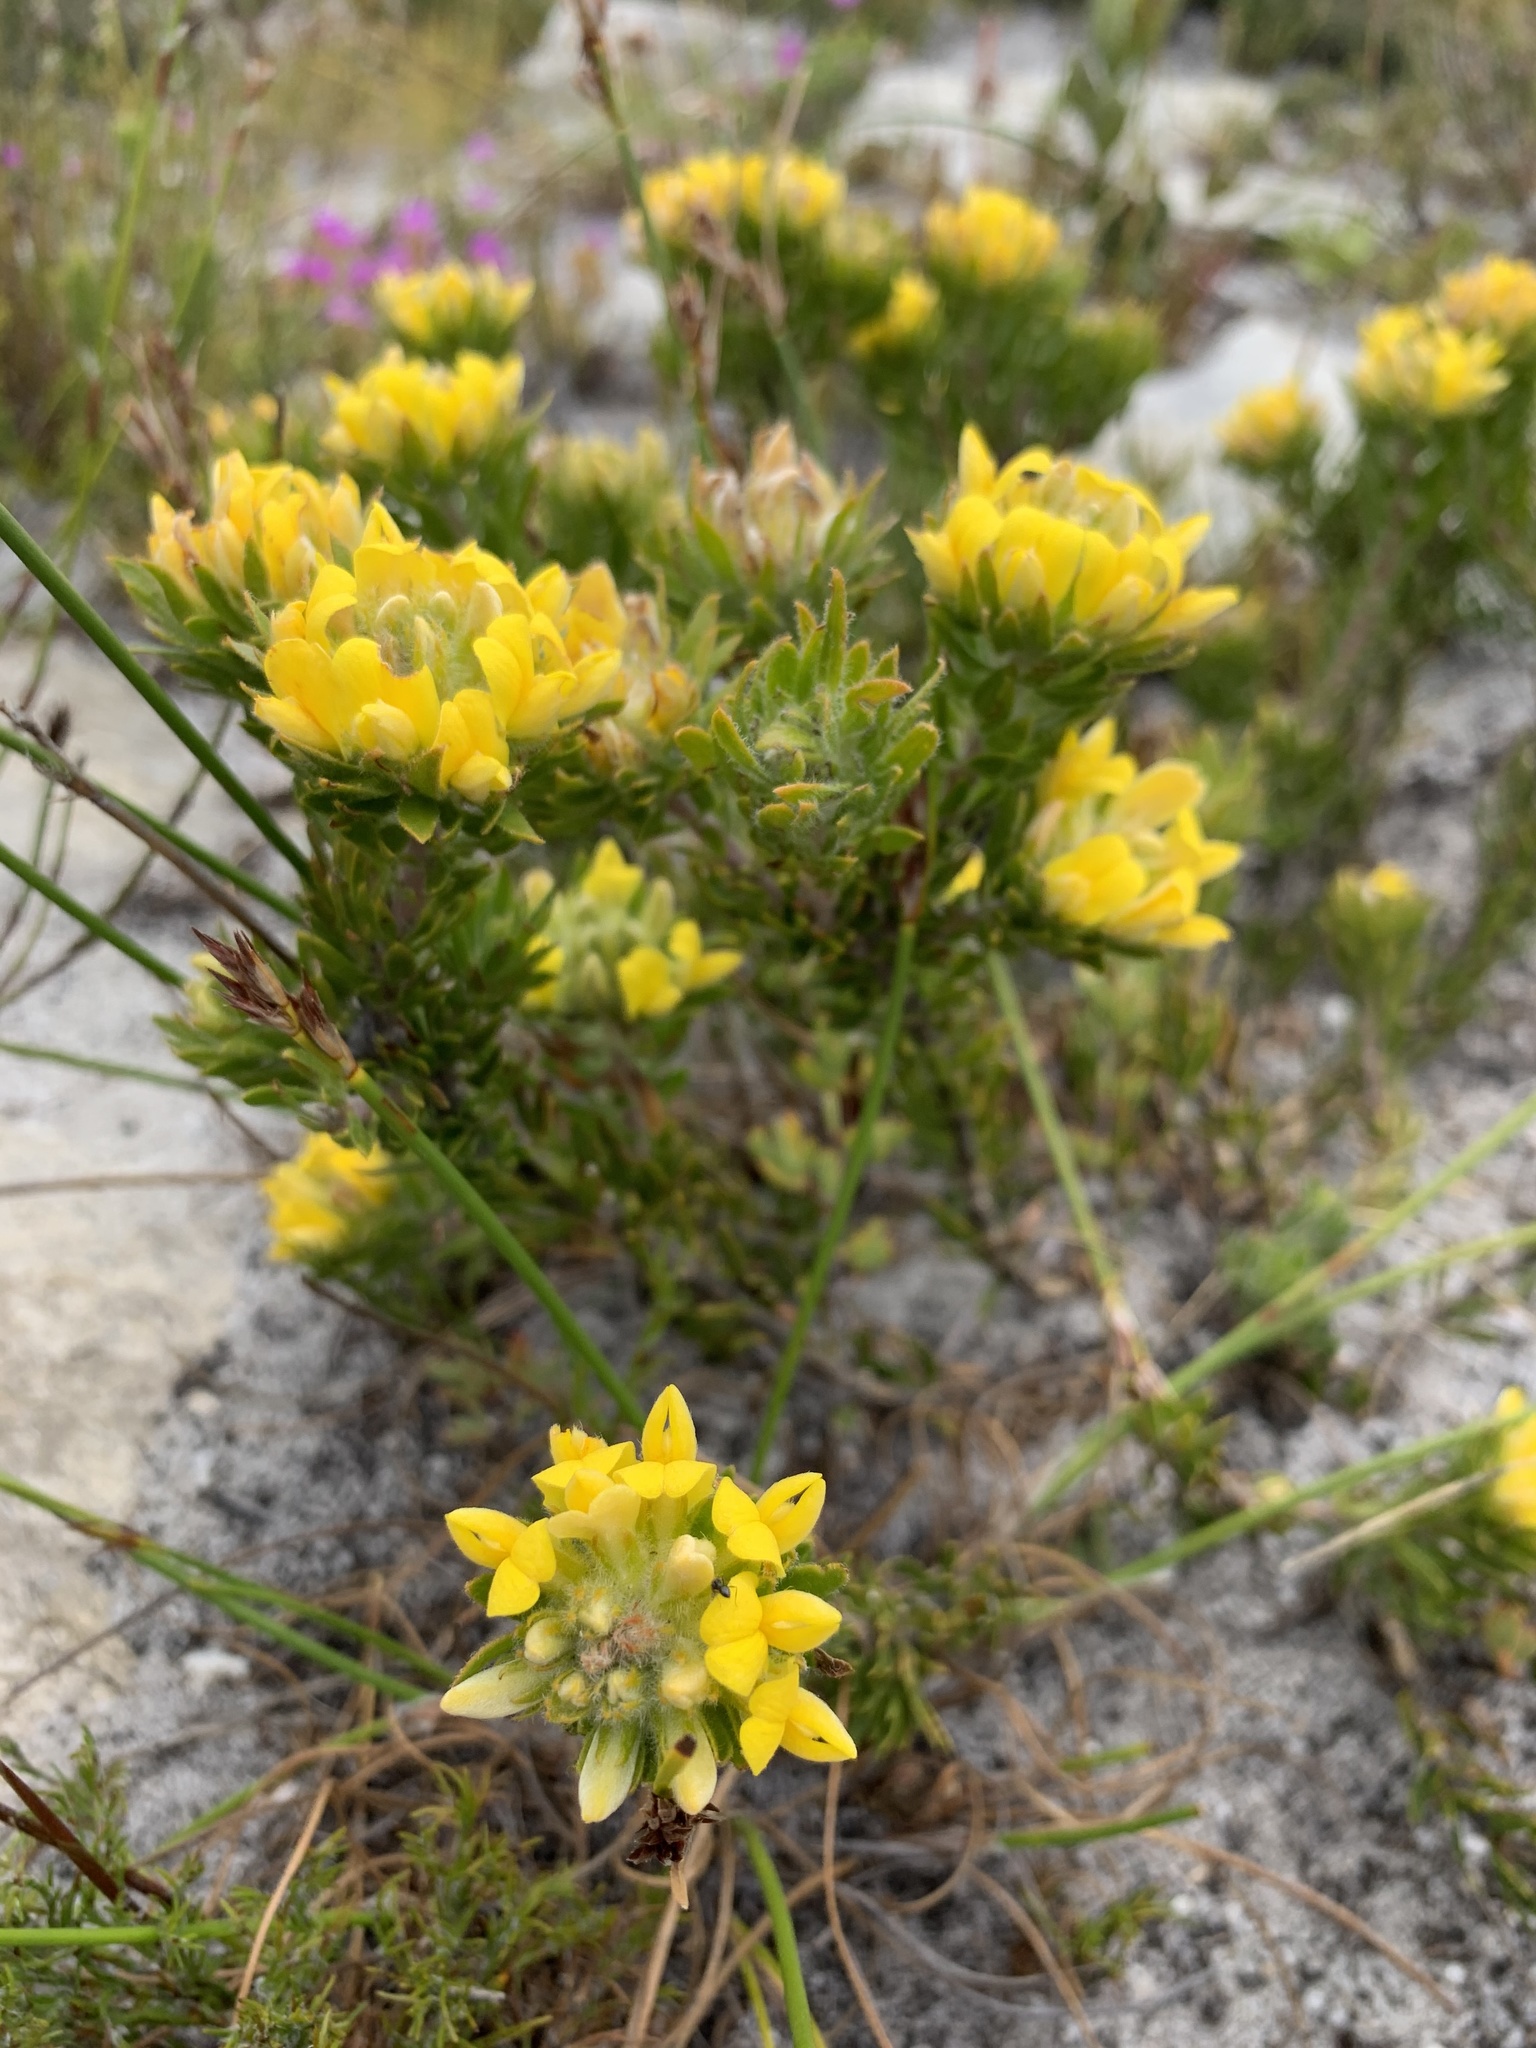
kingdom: Plantae
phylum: Tracheophyta
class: Magnoliopsida
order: Fabales
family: Fabaceae
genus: Aspalathus
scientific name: Aspalathus aspalathoides
